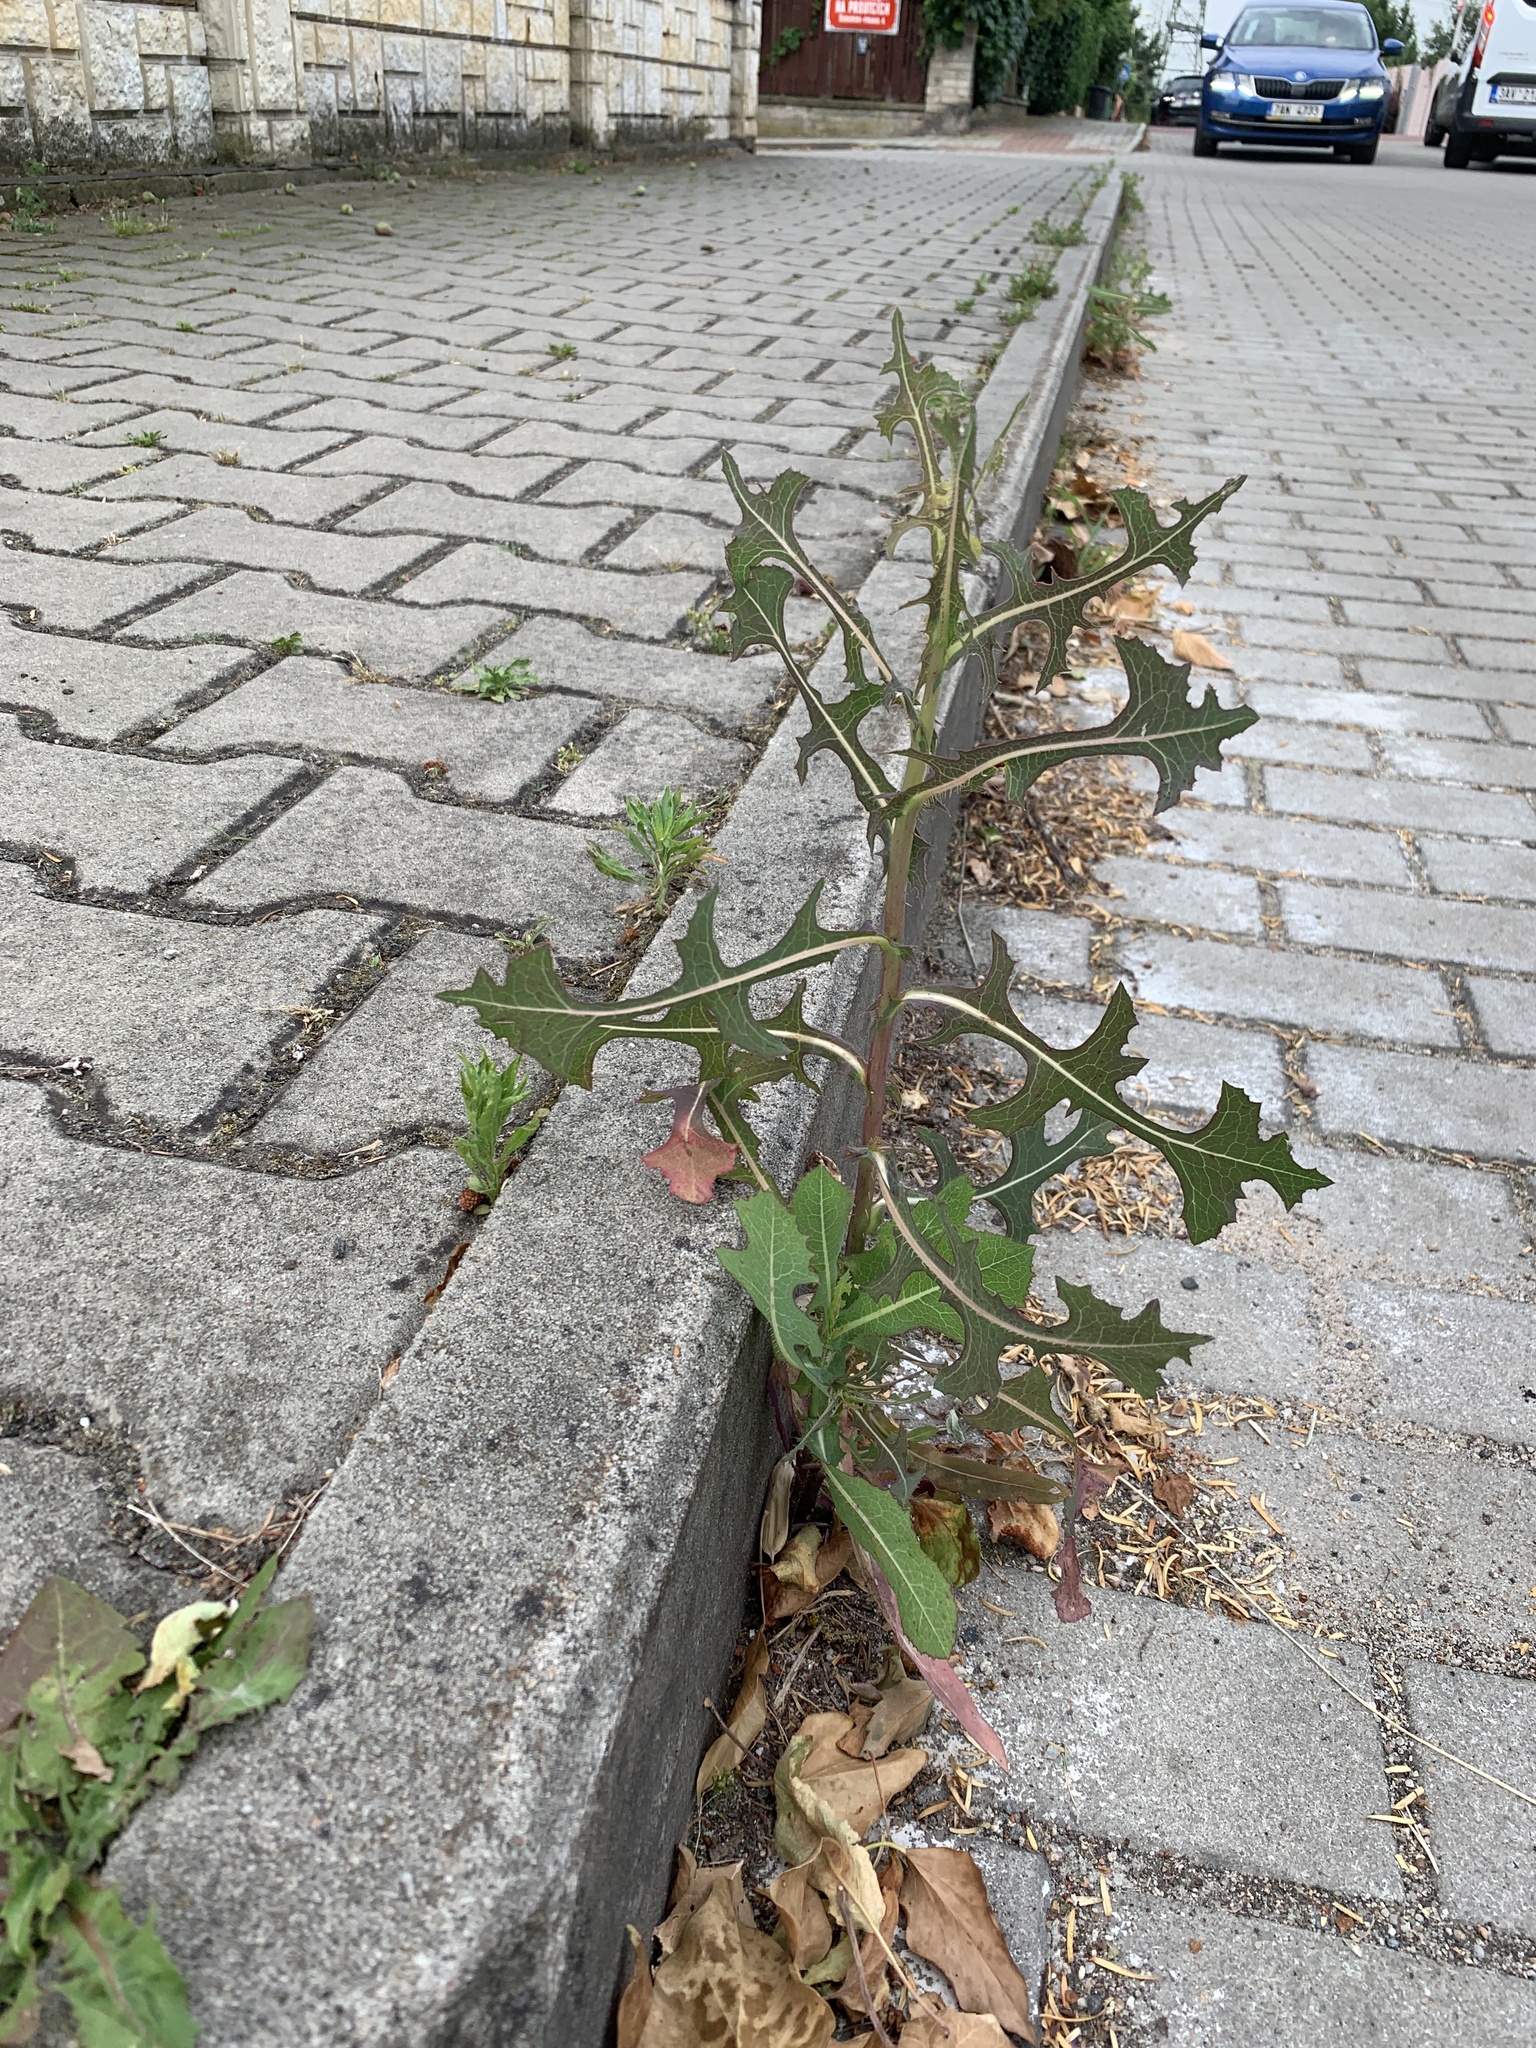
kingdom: Plantae
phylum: Tracheophyta
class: Magnoliopsida
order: Asterales
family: Asteraceae
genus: Lactuca
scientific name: Lactuca serriola
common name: Prickly lettuce
